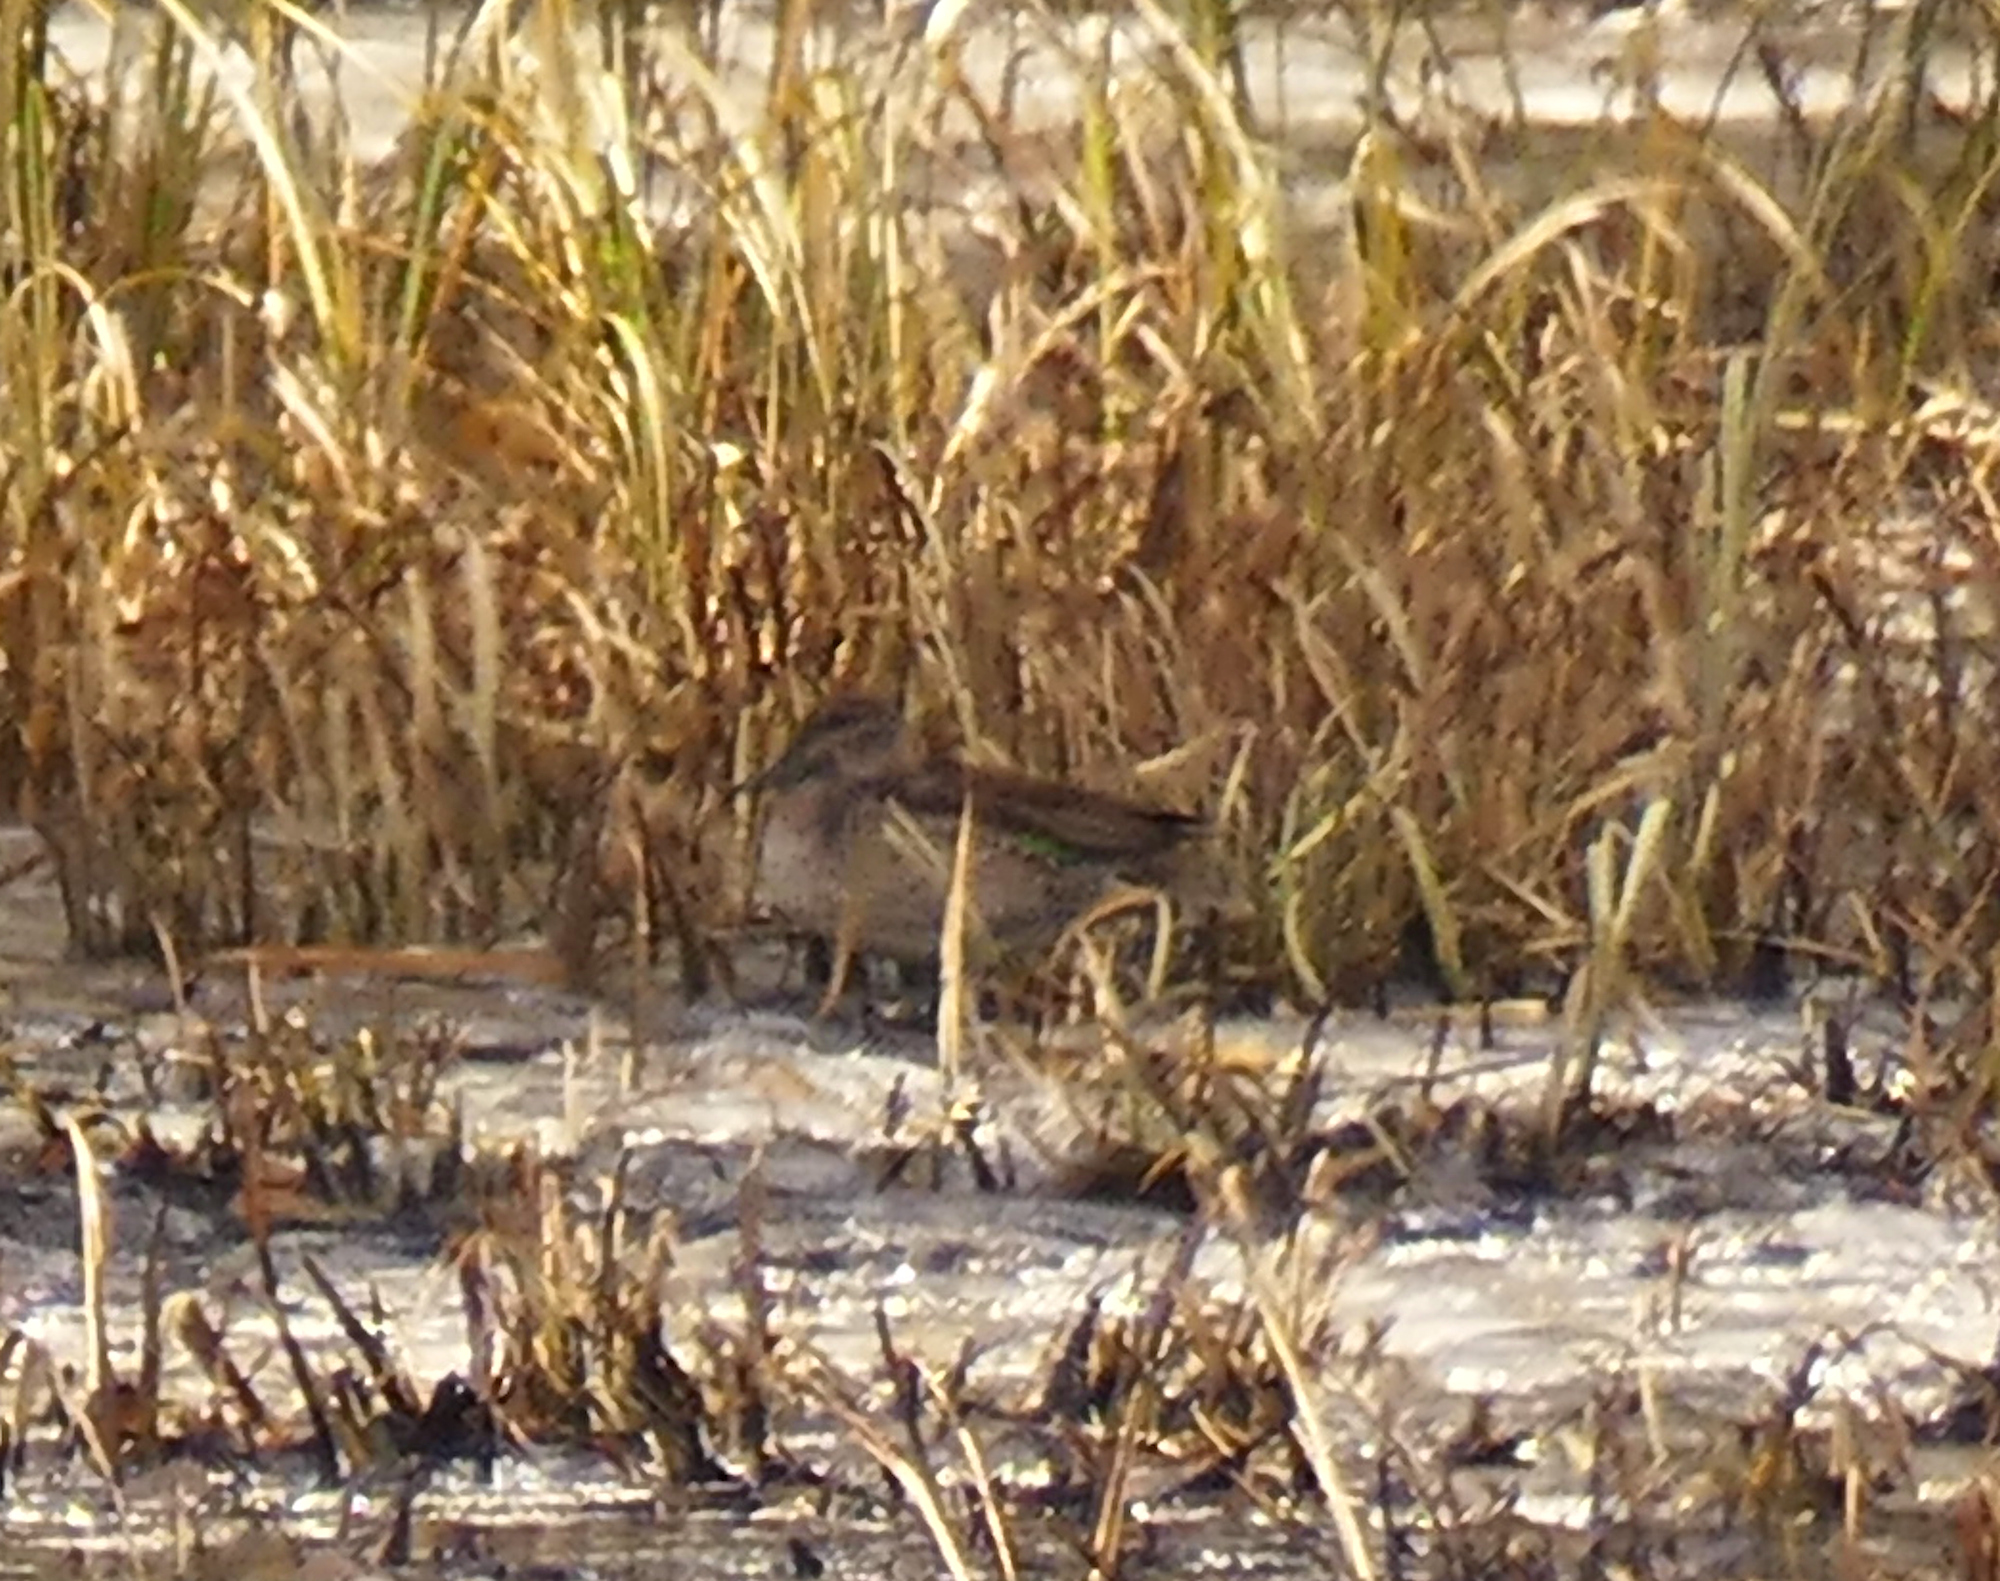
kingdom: Animalia
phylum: Chordata
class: Aves
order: Anseriformes
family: Anatidae
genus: Anas
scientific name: Anas crecca
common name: Eurasian teal
